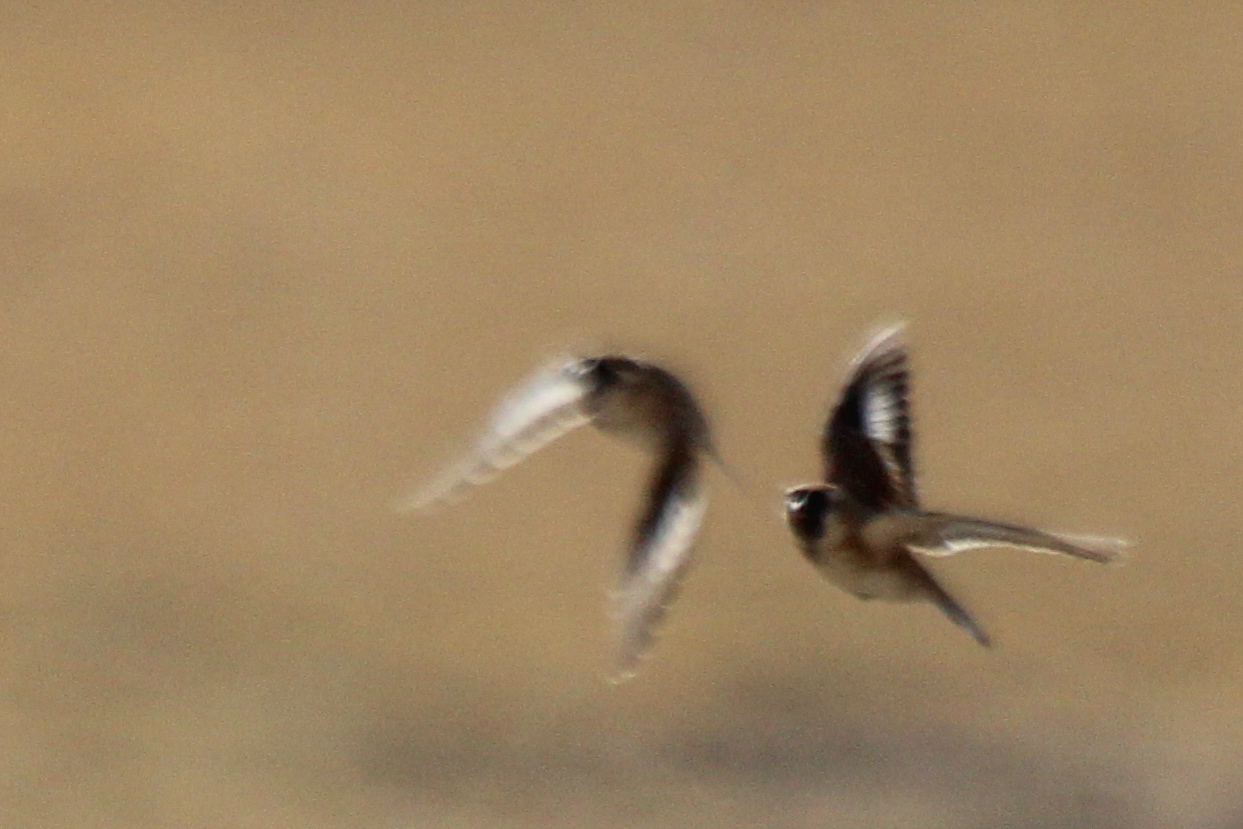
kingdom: Animalia
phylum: Chordata
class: Aves
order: Passeriformes
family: Passeridae
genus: Pyrgilauda
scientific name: Pyrgilauda davidiana
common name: Pere david's snowfinch
